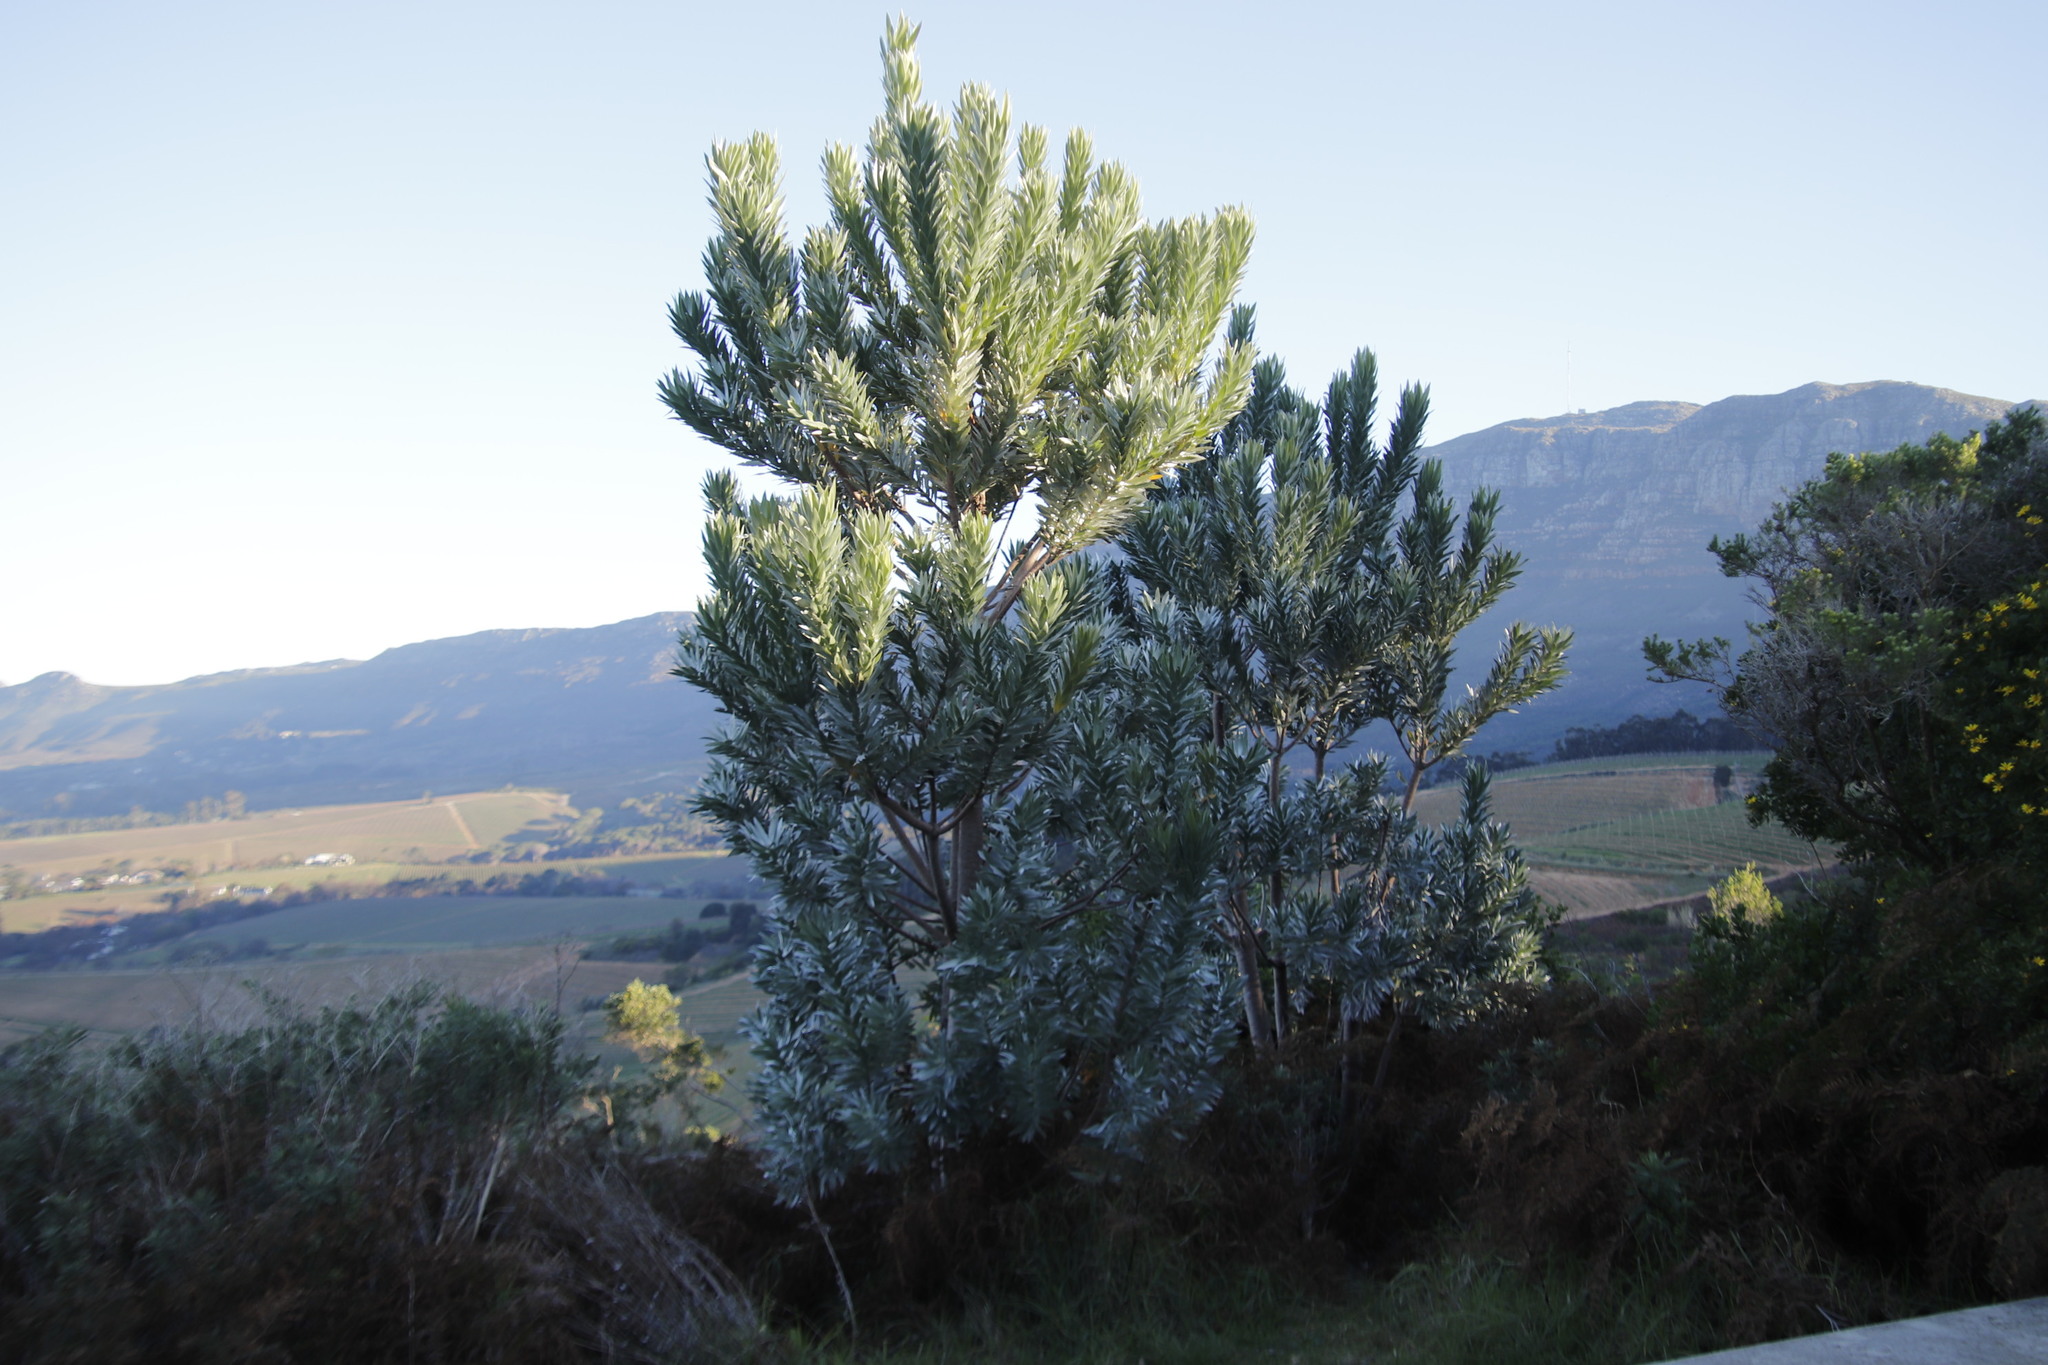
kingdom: Plantae
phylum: Tracheophyta
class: Magnoliopsida
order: Proteales
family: Proteaceae
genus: Leucadendron
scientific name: Leucadendron argenteum
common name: Cape silver tree
